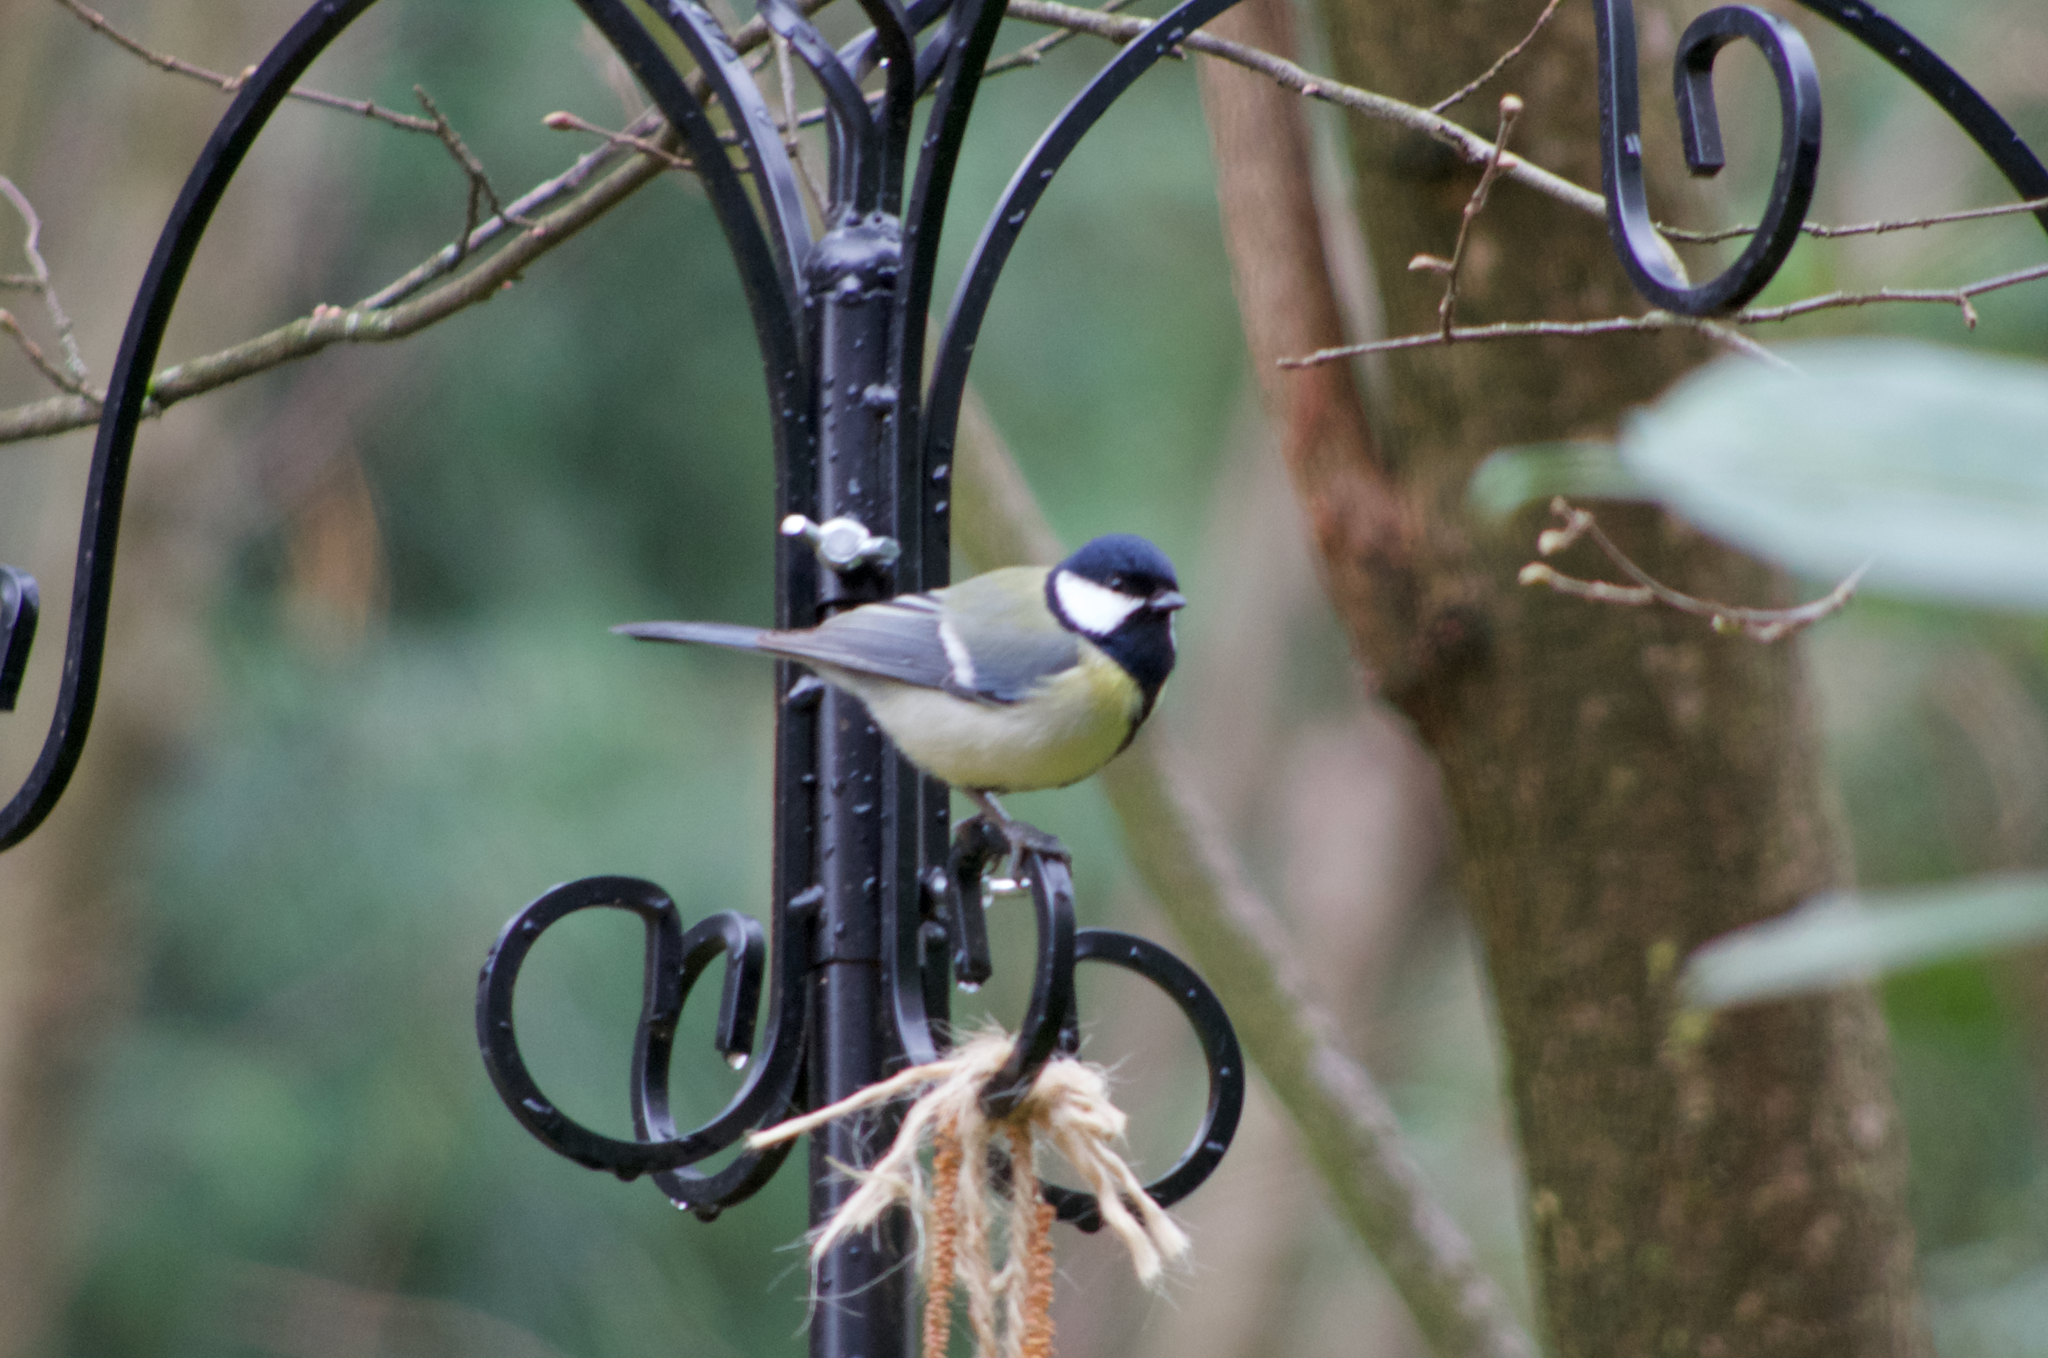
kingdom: Animalia
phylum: Chordata
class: Aves
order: Passeriformes
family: Paridae
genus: Parus
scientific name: Parus major
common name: Great tit
